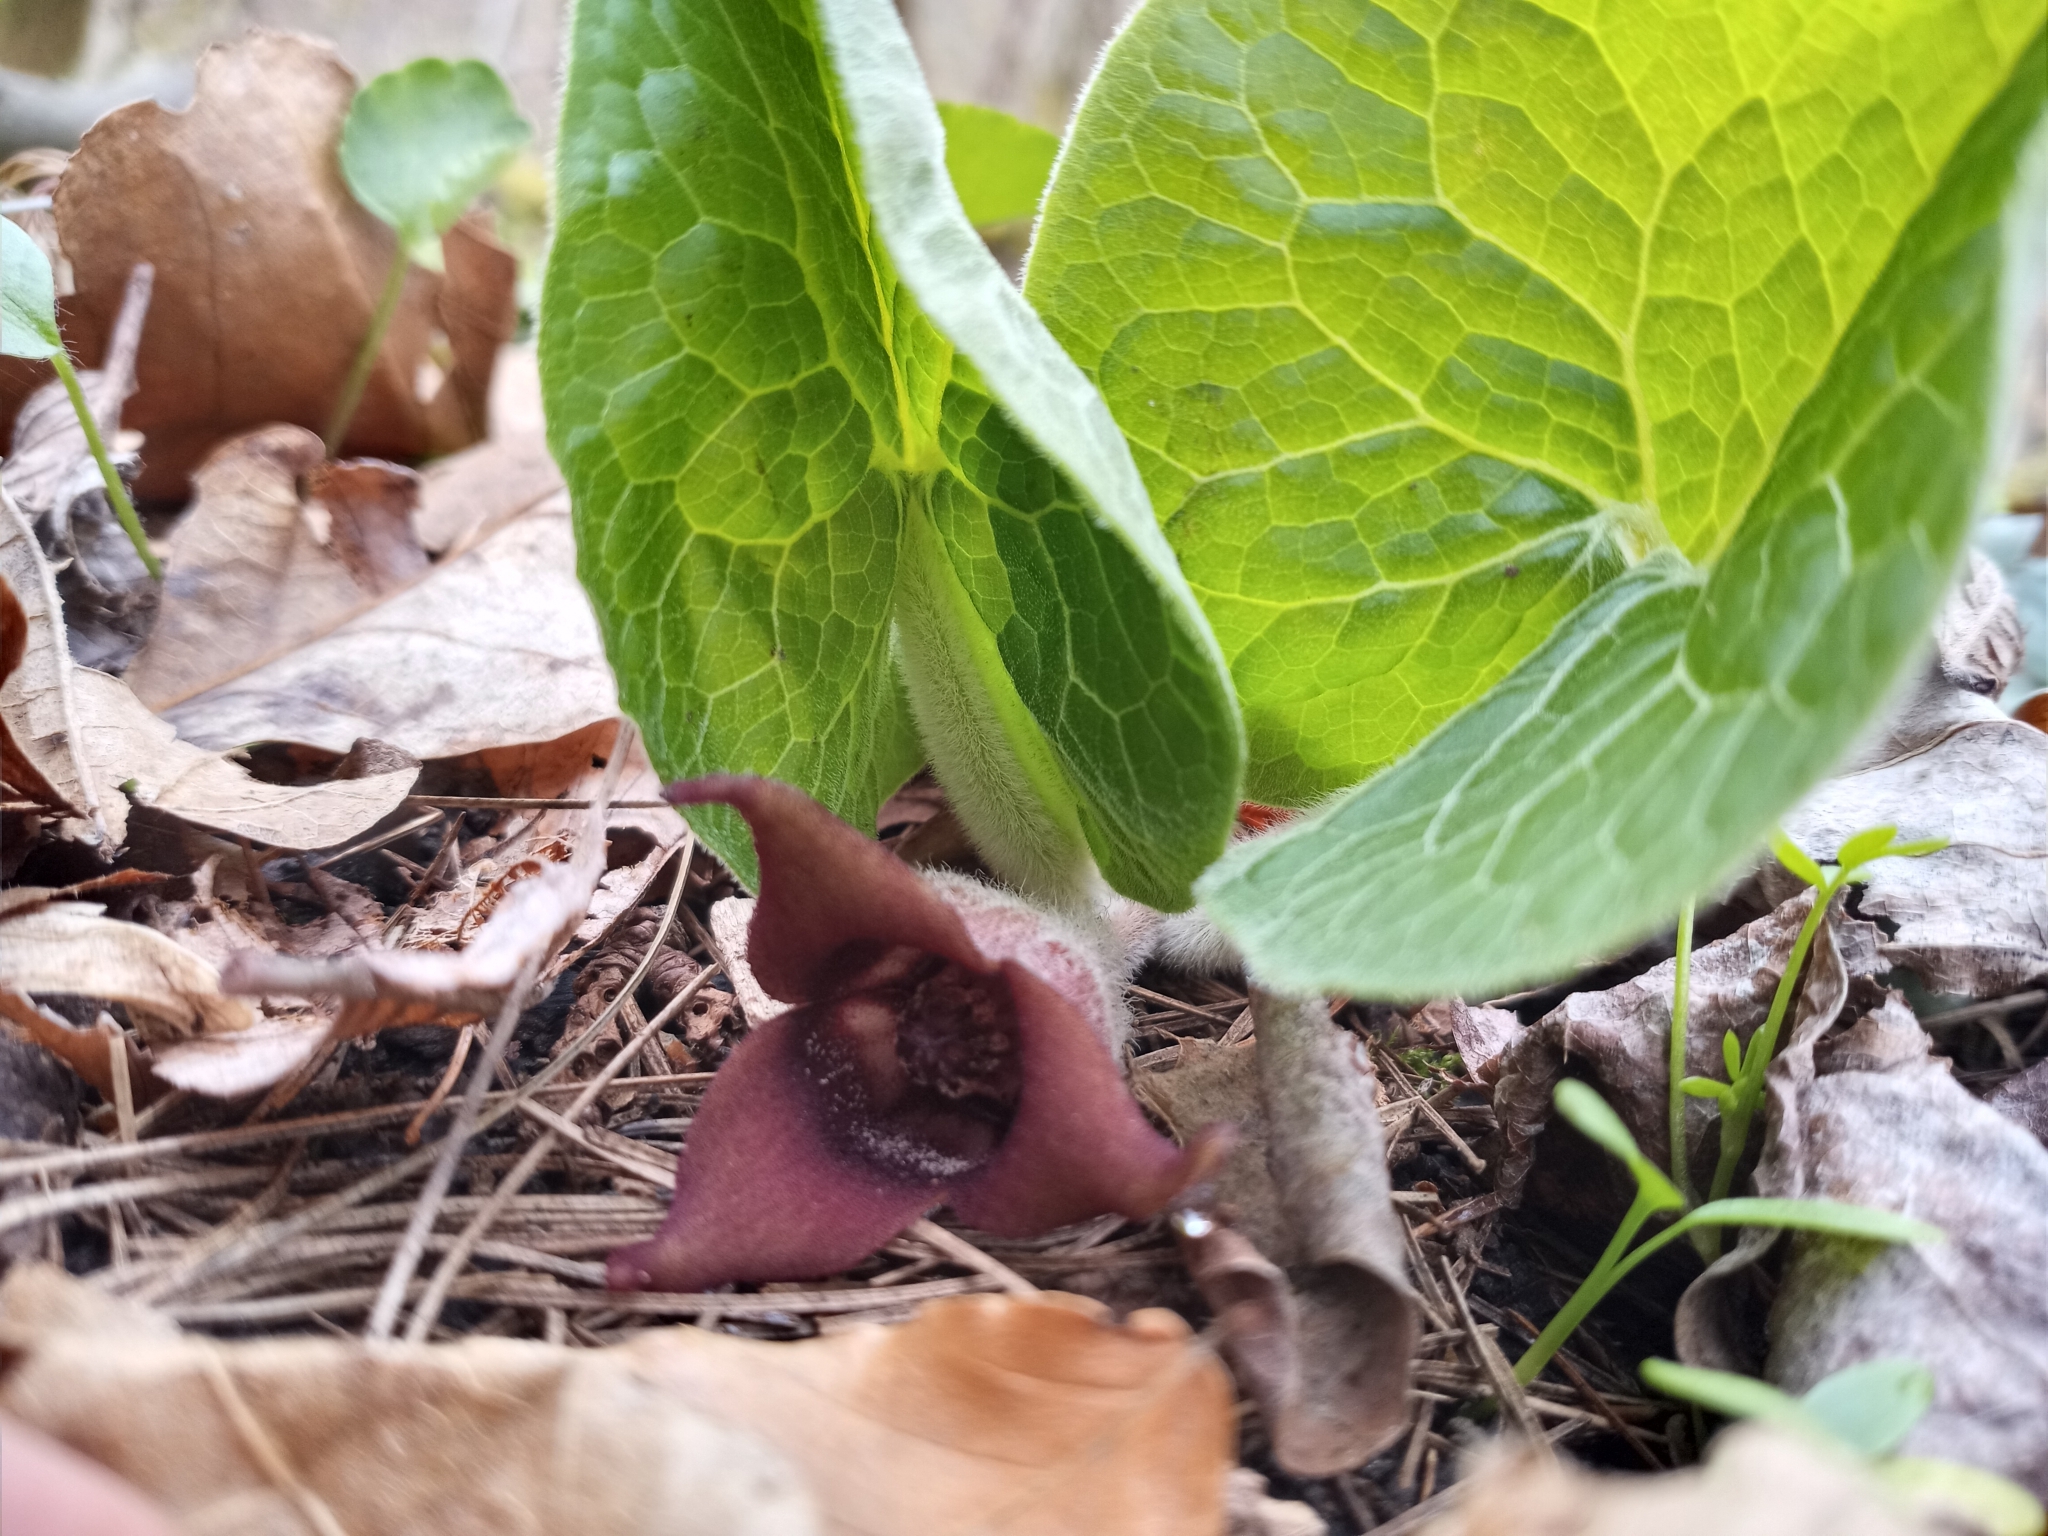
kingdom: Plantae
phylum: Tracheophyta
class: Magnoliopsida
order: Piperales
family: Aristolochiaceae
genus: Asarum
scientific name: Asarum canadense
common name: Wild ginger
